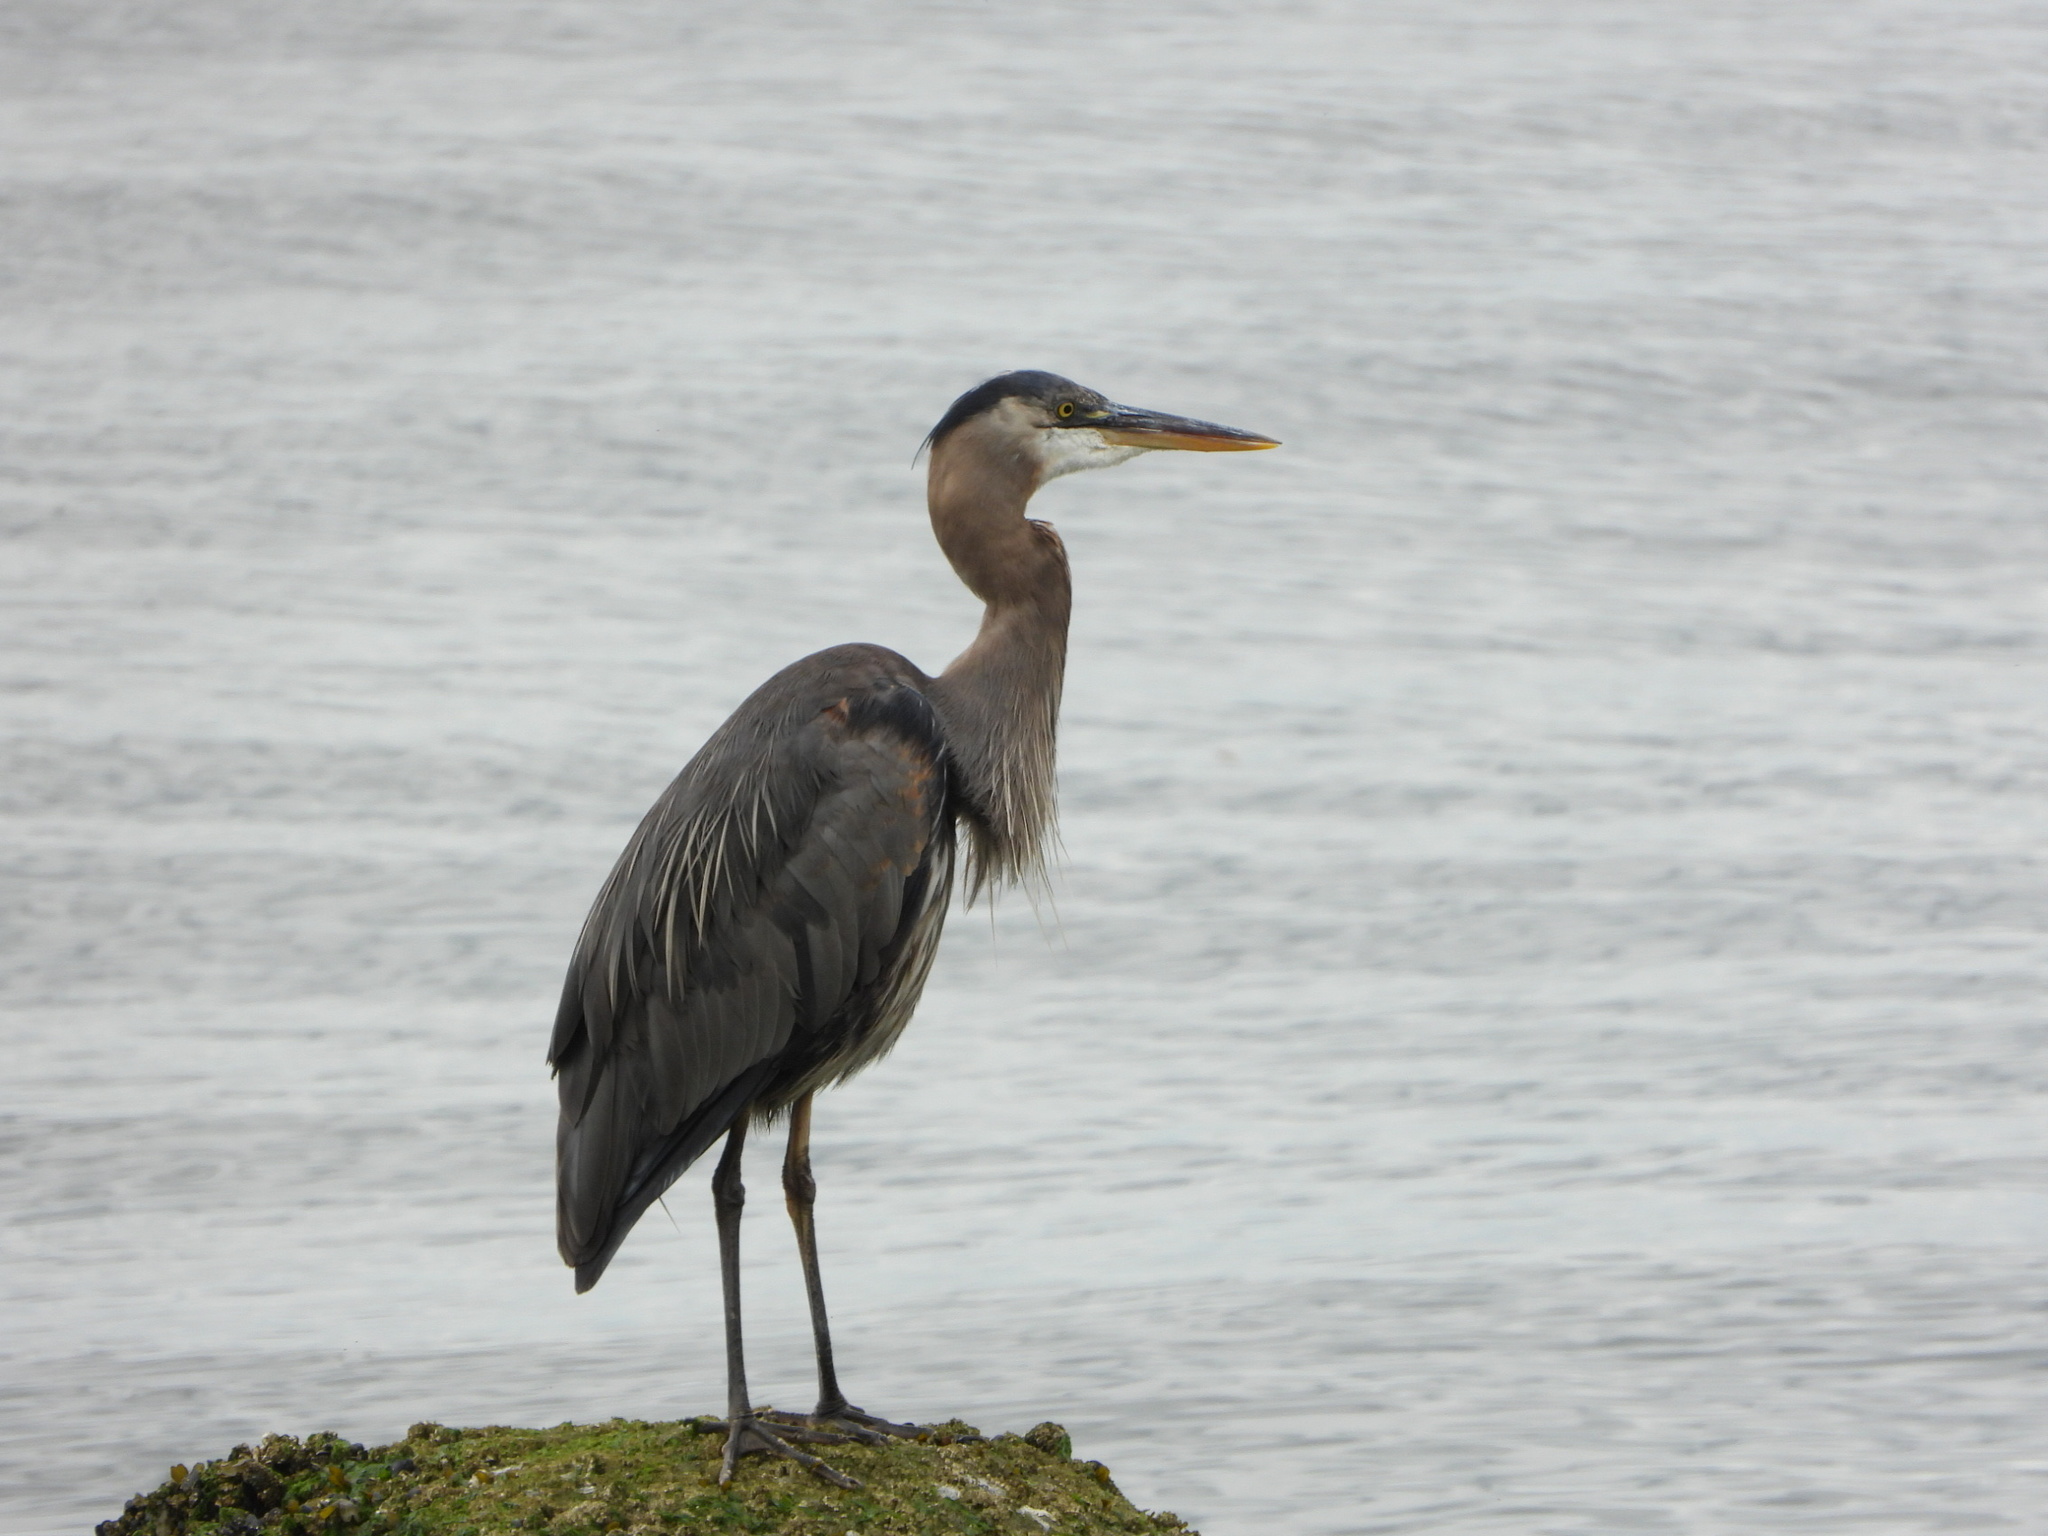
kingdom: Animalia
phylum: Chordata
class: Aves
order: Pelecaniformes
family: Ardeidae
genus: Ardea
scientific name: Ardea herodias
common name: Great blue heron
